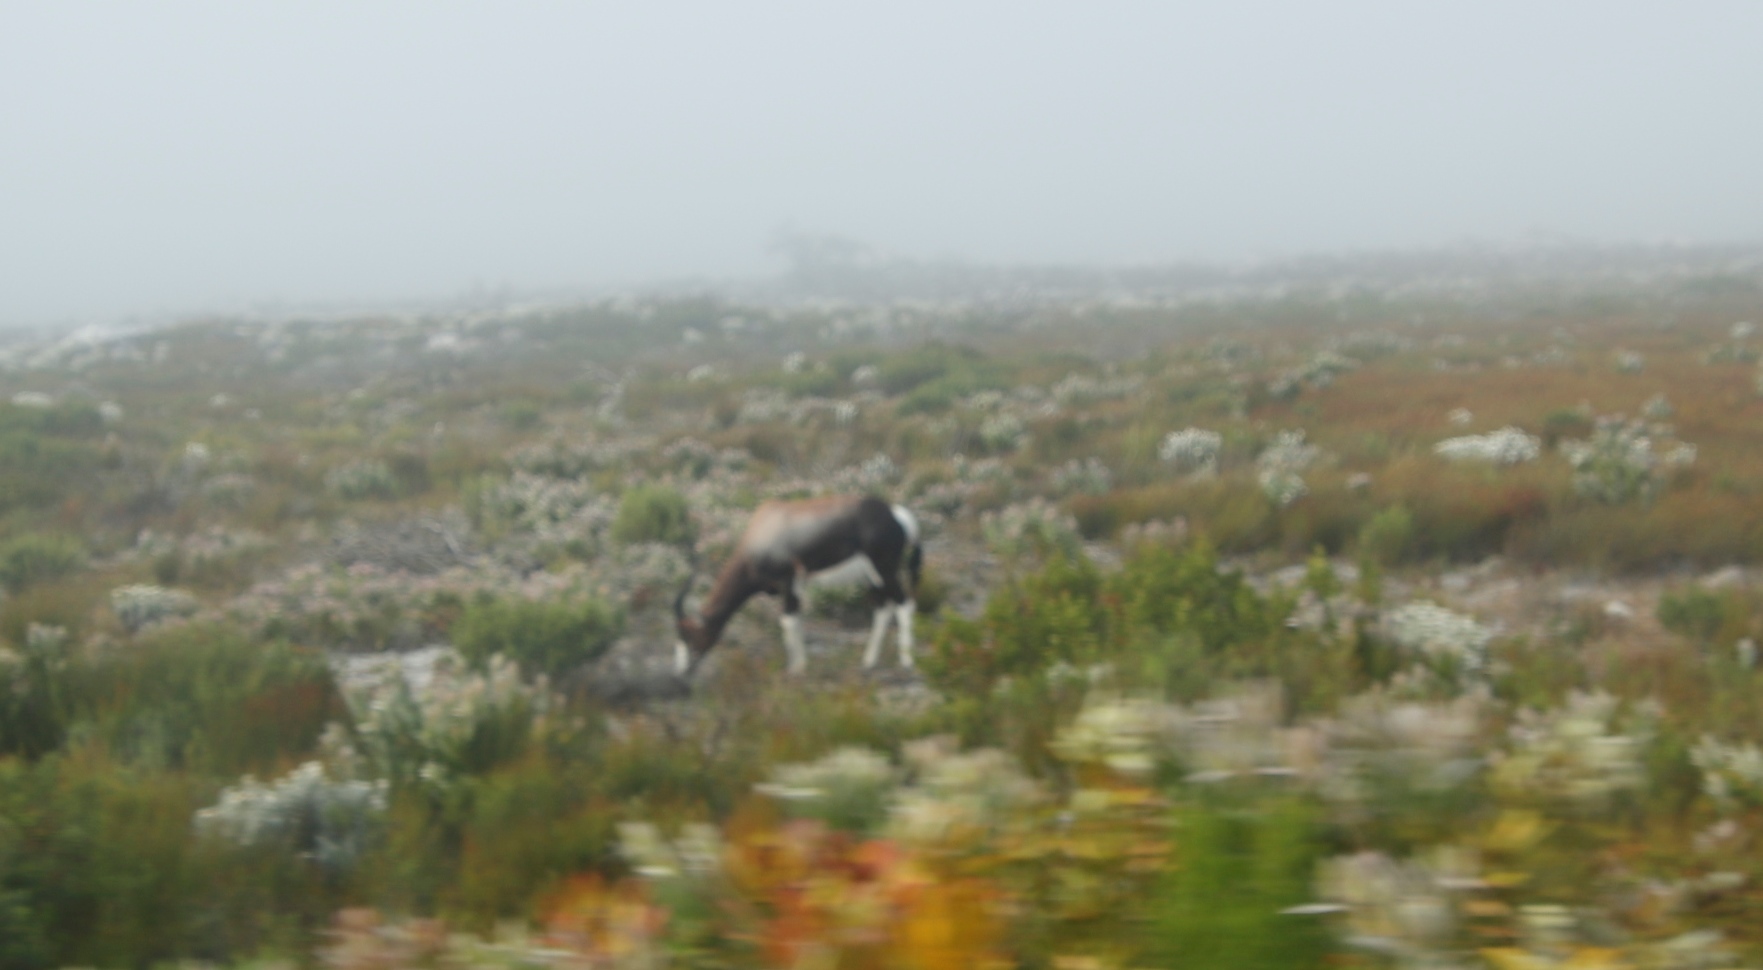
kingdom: Animalia
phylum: Chordata
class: Mammalia
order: Artiodactyla
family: Bovidae
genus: Damaliscus
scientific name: Damaliscus pygargus
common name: Bontebok
